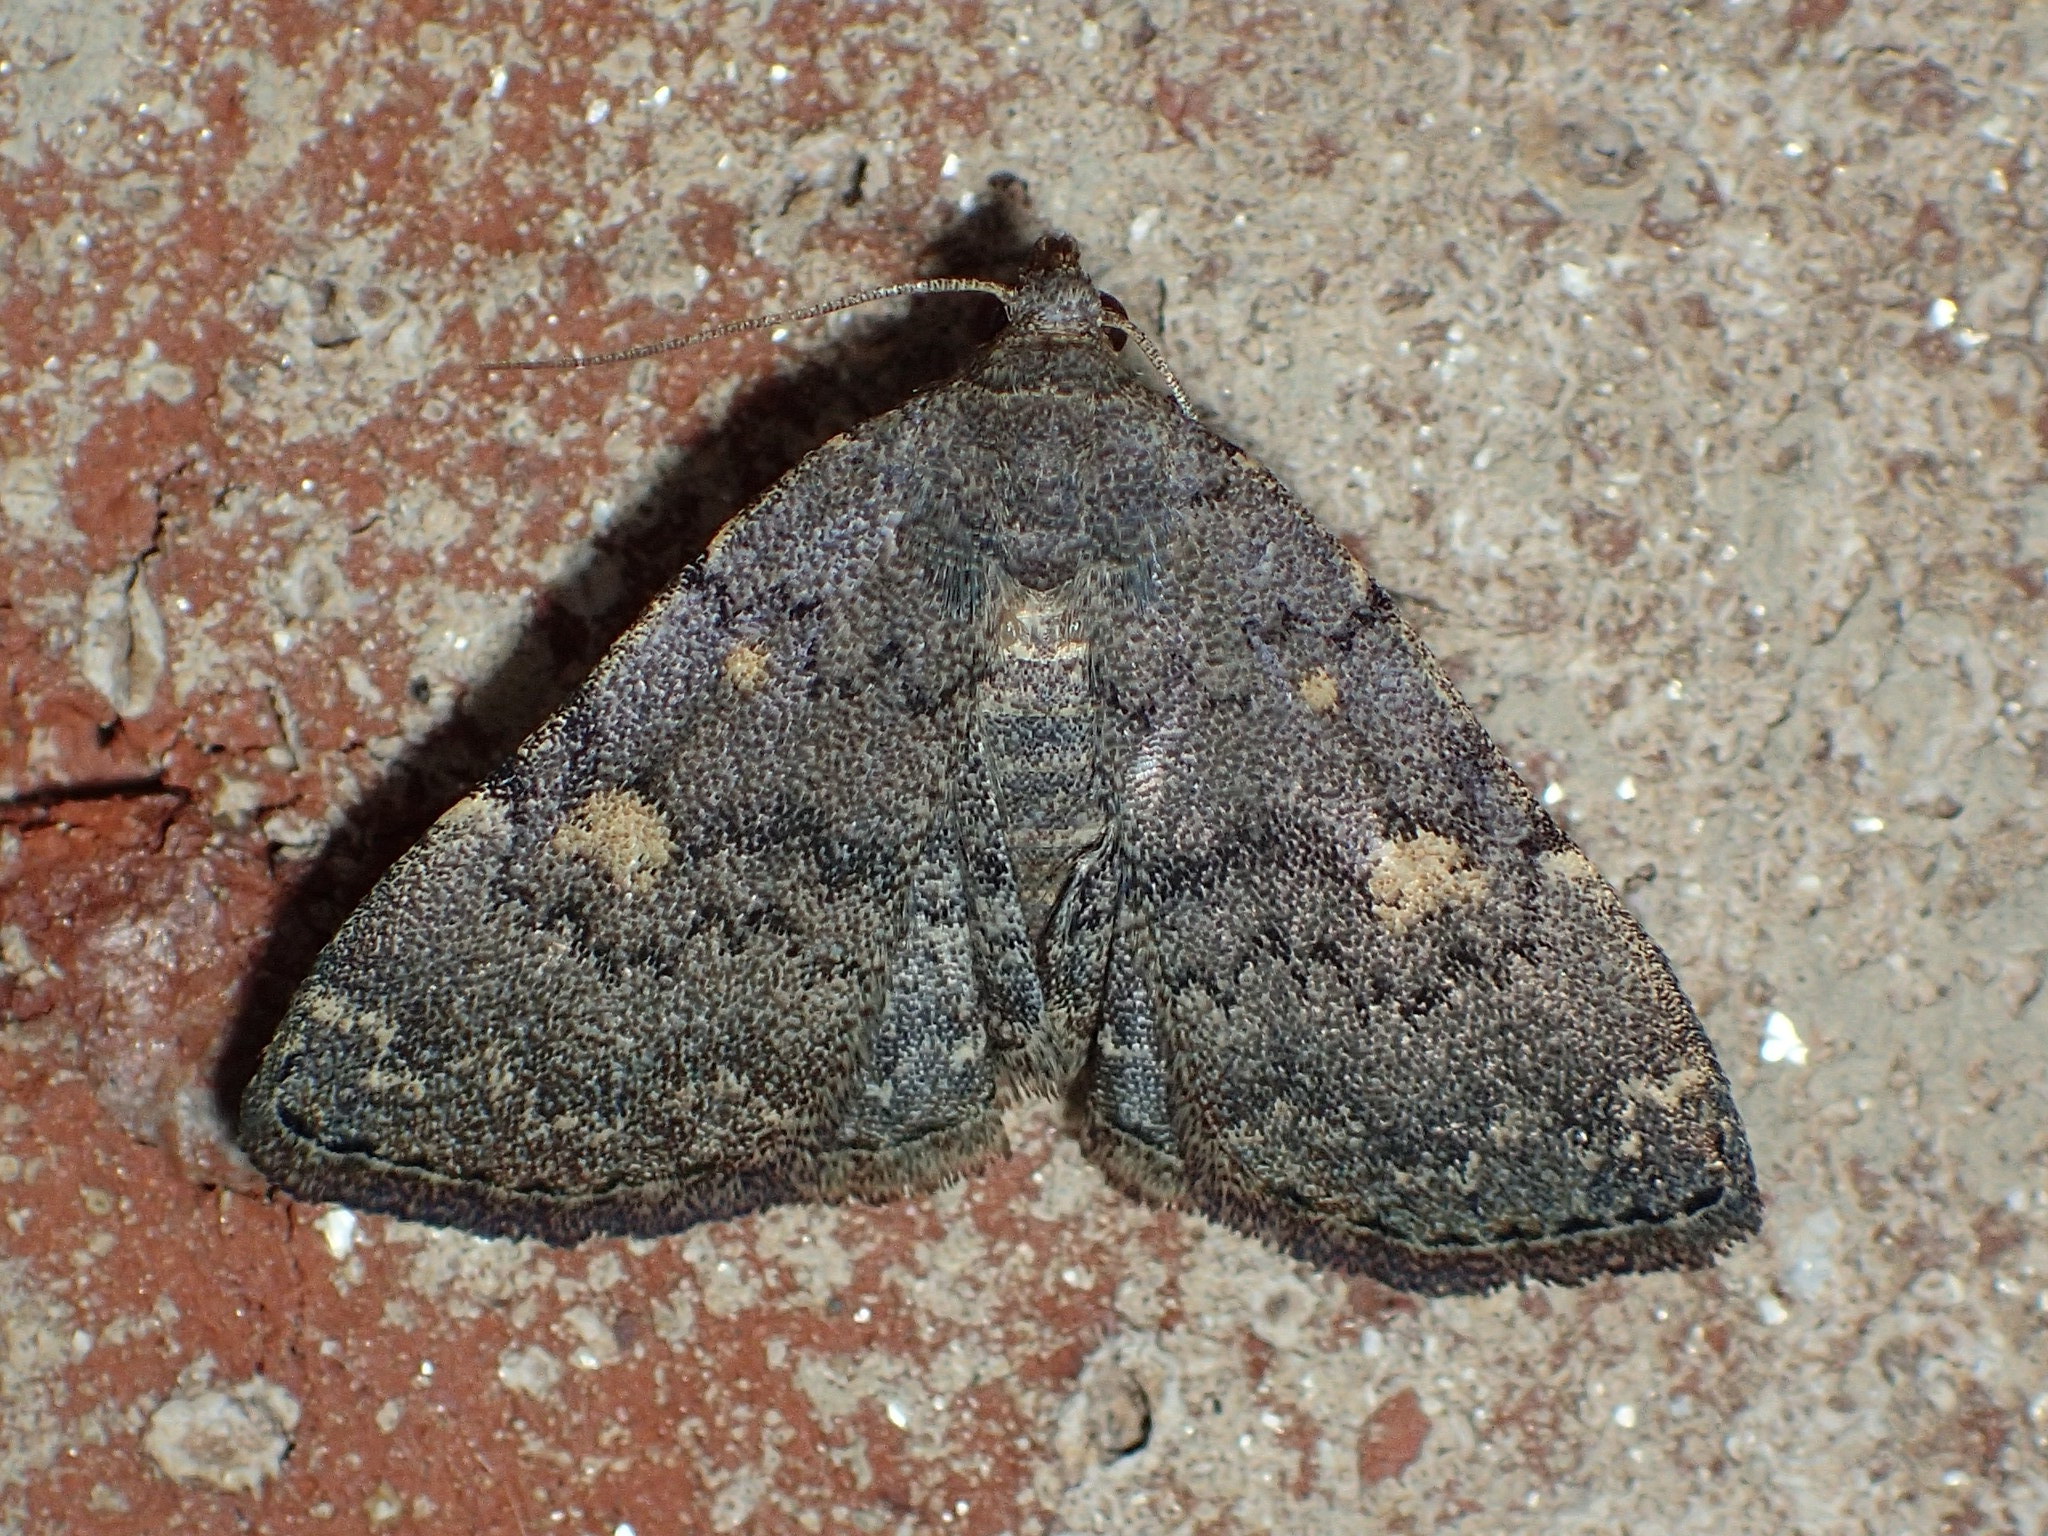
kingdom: Animalia
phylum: Arthropoda
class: Insecta
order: Lepidoptera
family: Erebidae
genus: Idia
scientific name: Idia aemula
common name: Common idia moth
